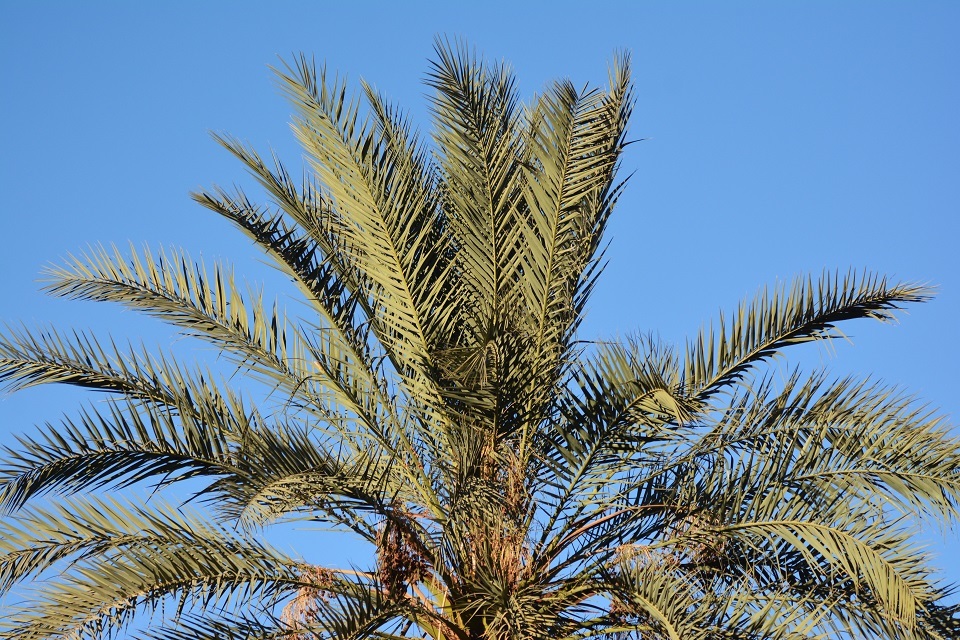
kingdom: Plantae
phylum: Tracheophyta
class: Liliopsida
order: Arecales
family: Arecaceae
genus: Phoenix
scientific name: Phoenix dactylifera
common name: Date palm
